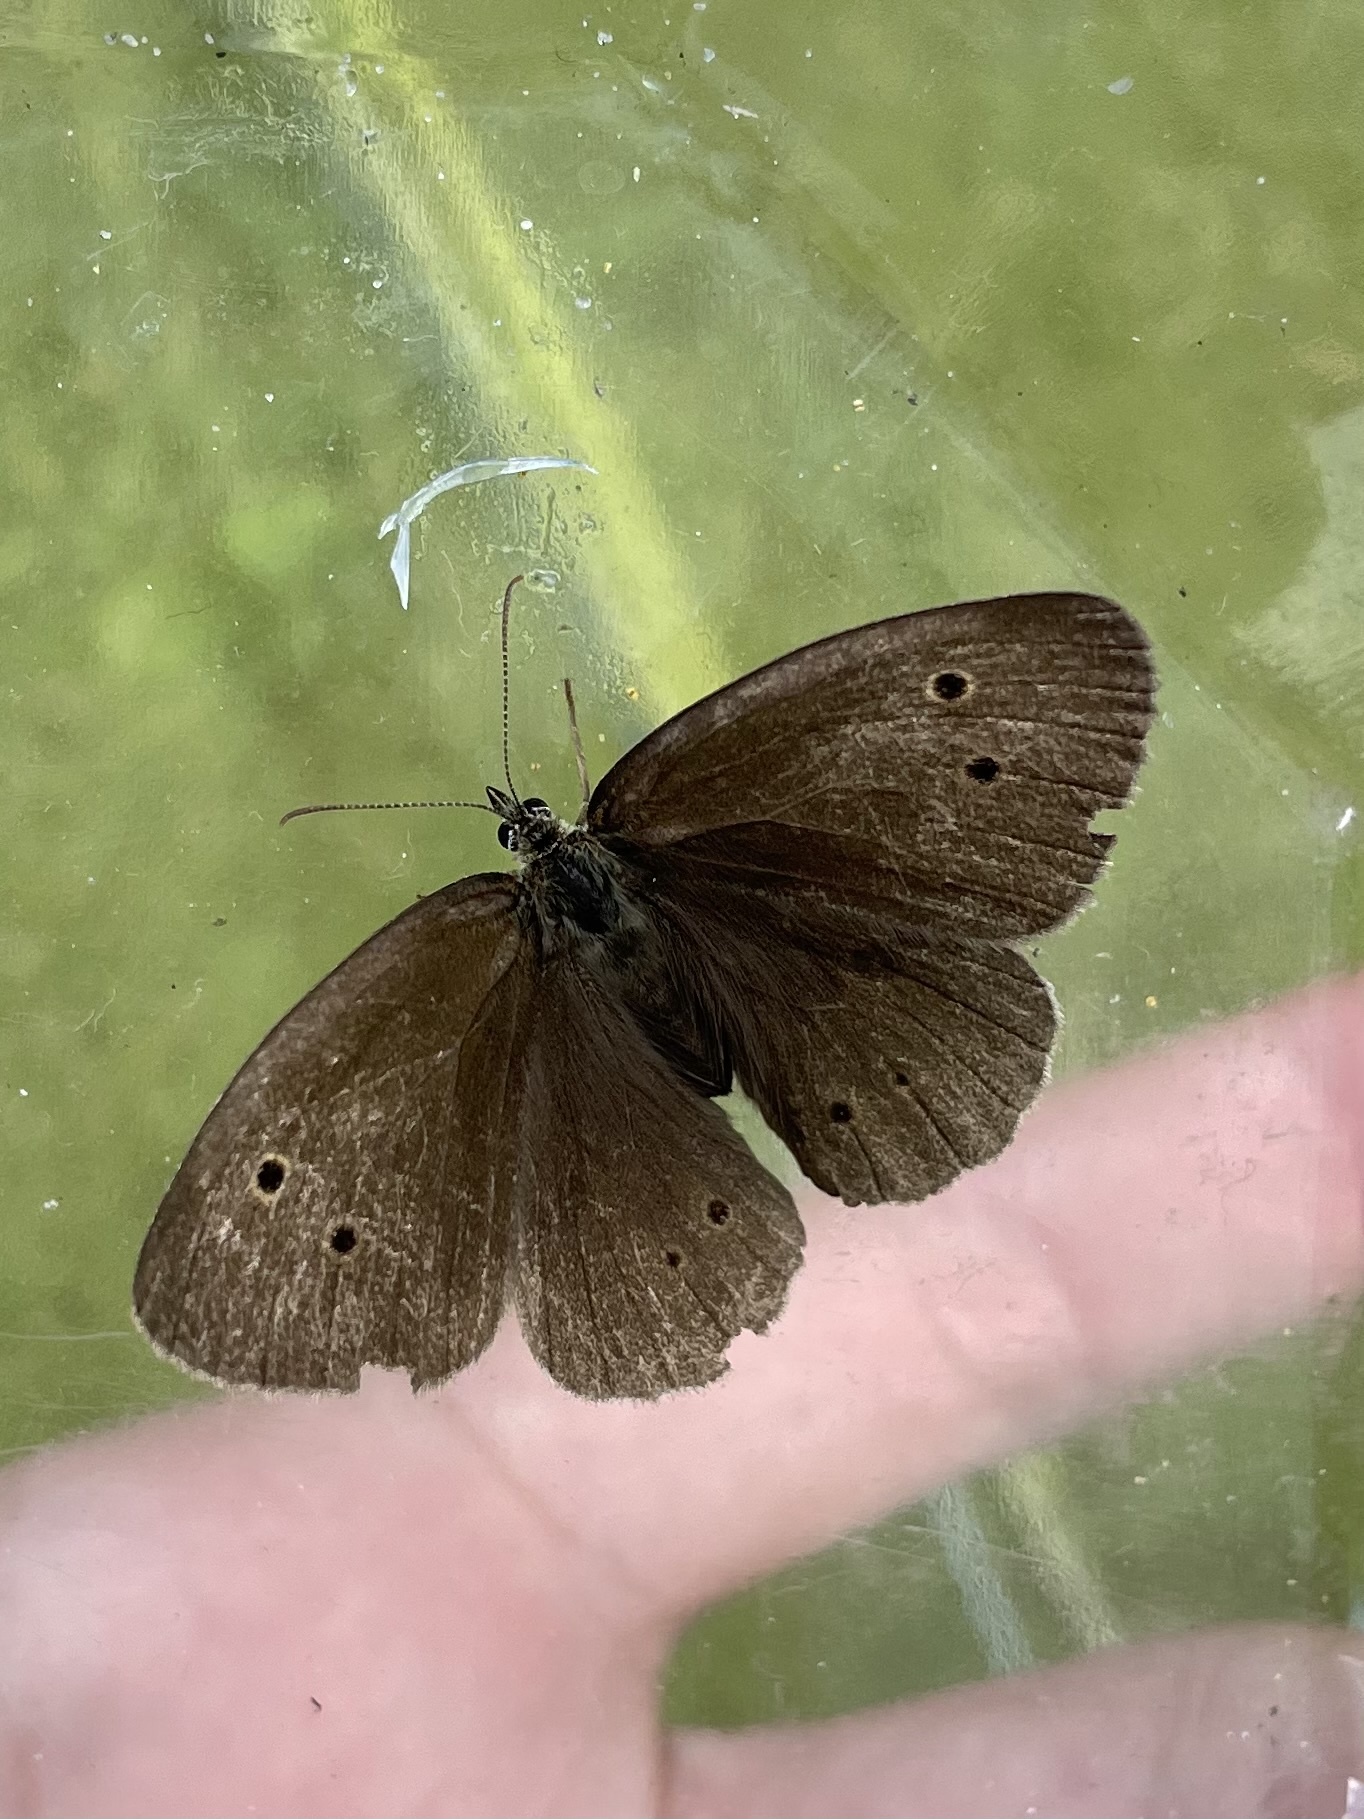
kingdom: Animalia
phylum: Arthropoda
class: Insecta
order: Lepidoptera
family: Nymphalidae
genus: Aphantopus
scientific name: Aphantopus hyperantus
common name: Ringlet
